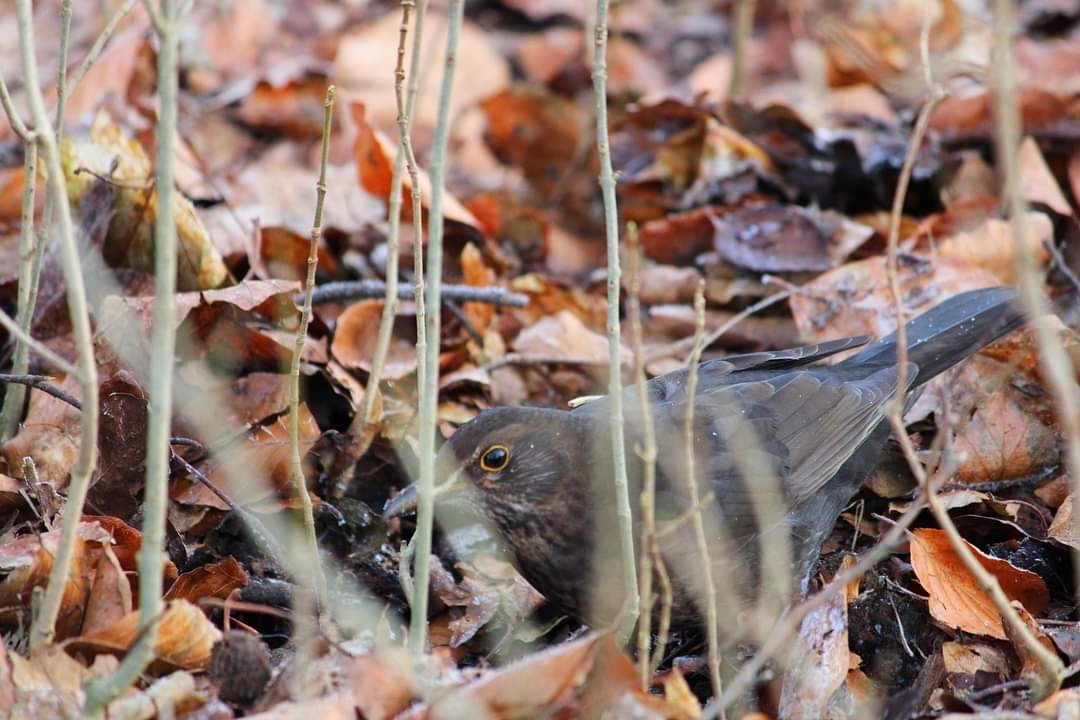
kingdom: Animalia
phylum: Chordata
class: Aves
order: Passeriformes
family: Turdidae
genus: Turdus
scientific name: Turdus merula
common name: Common blackbird
